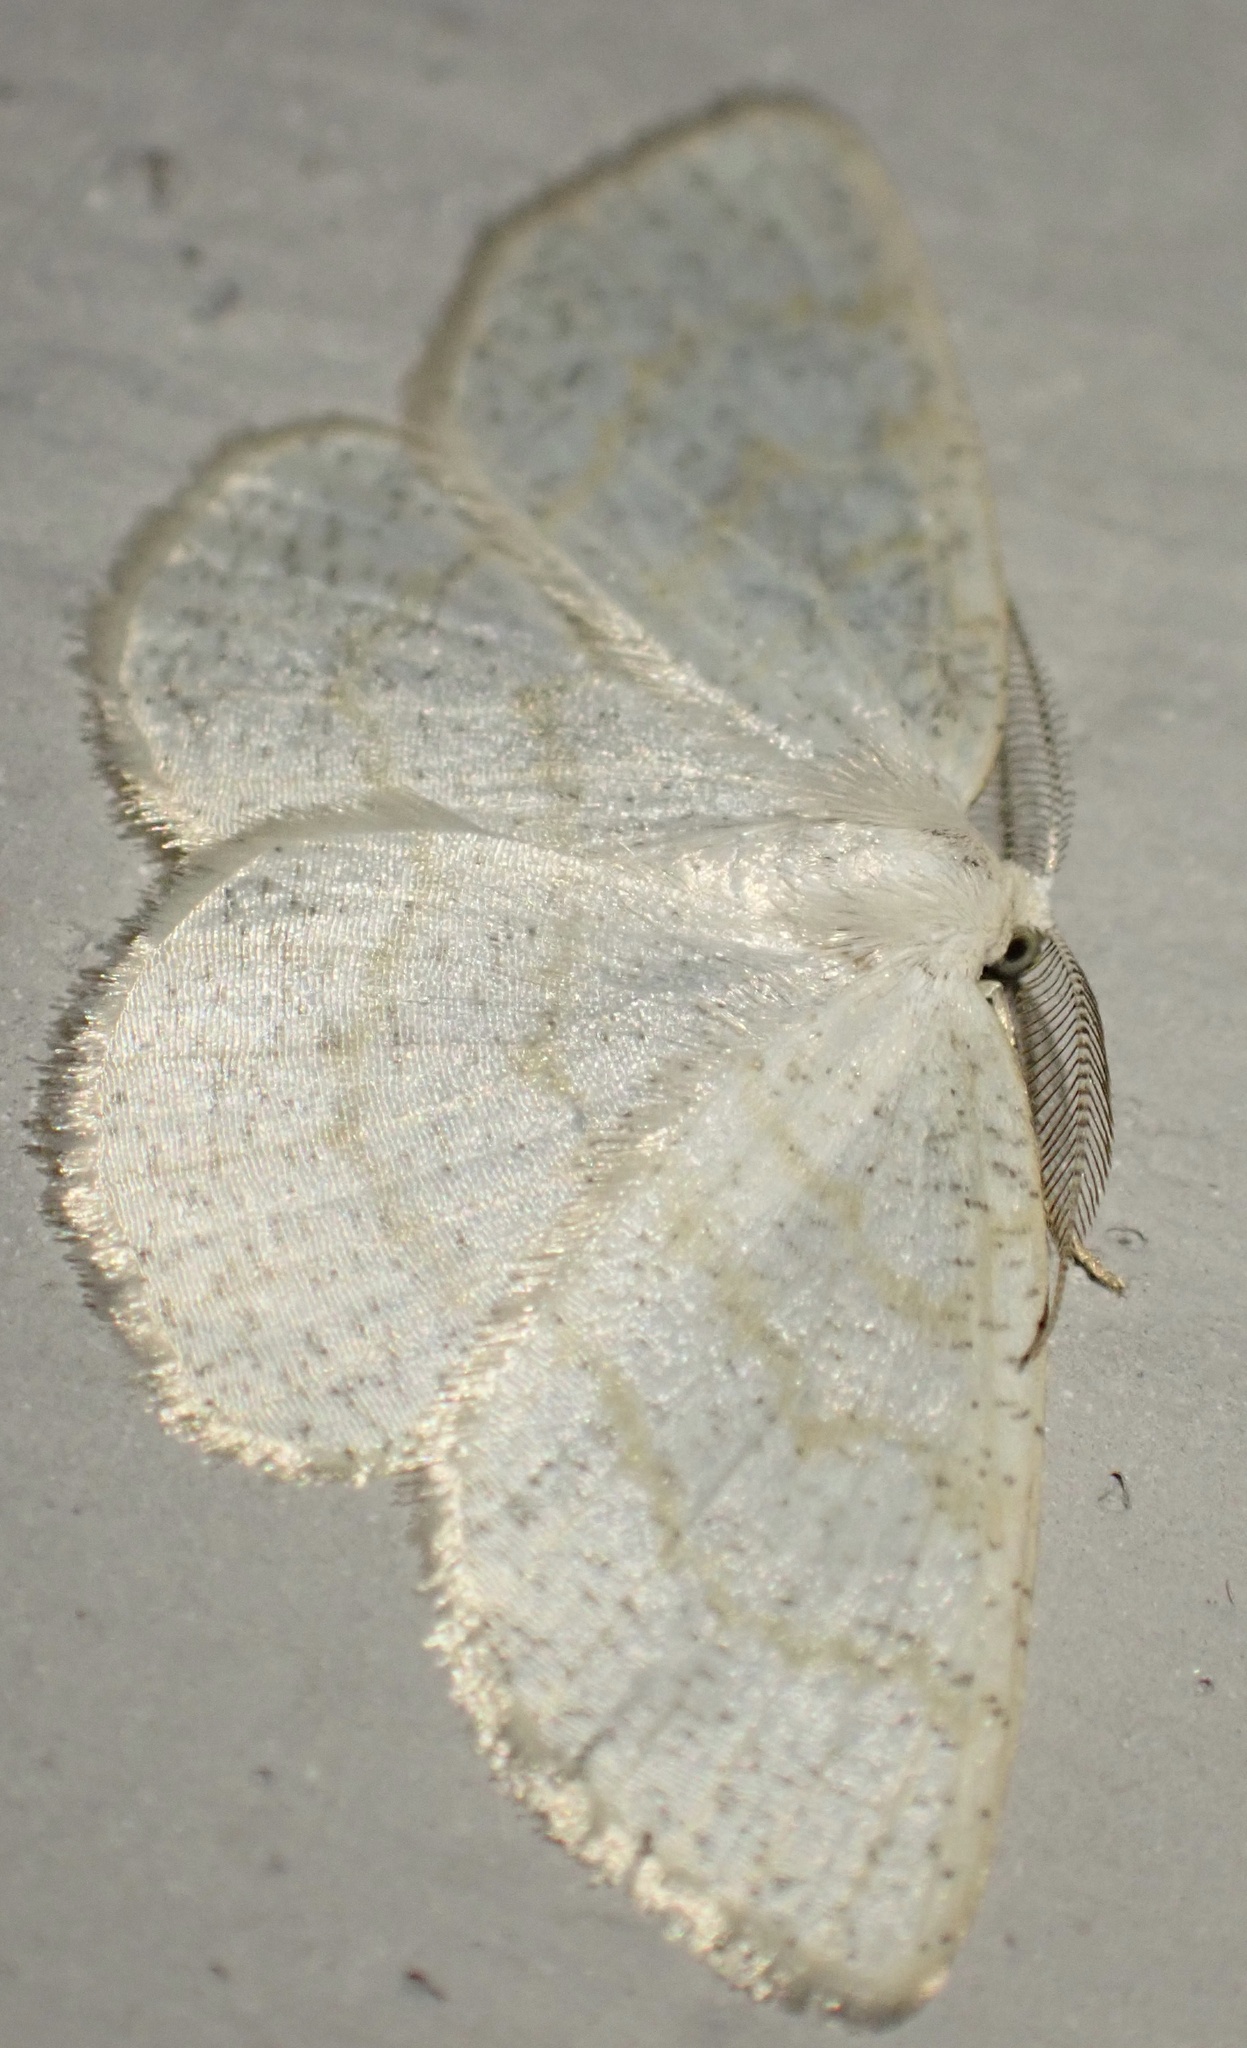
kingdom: Animalia
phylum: Arthropoda
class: Insecta
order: Lepidoptera
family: Geometridae
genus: Cabera
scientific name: Cabera exanthemata
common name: Common wave
